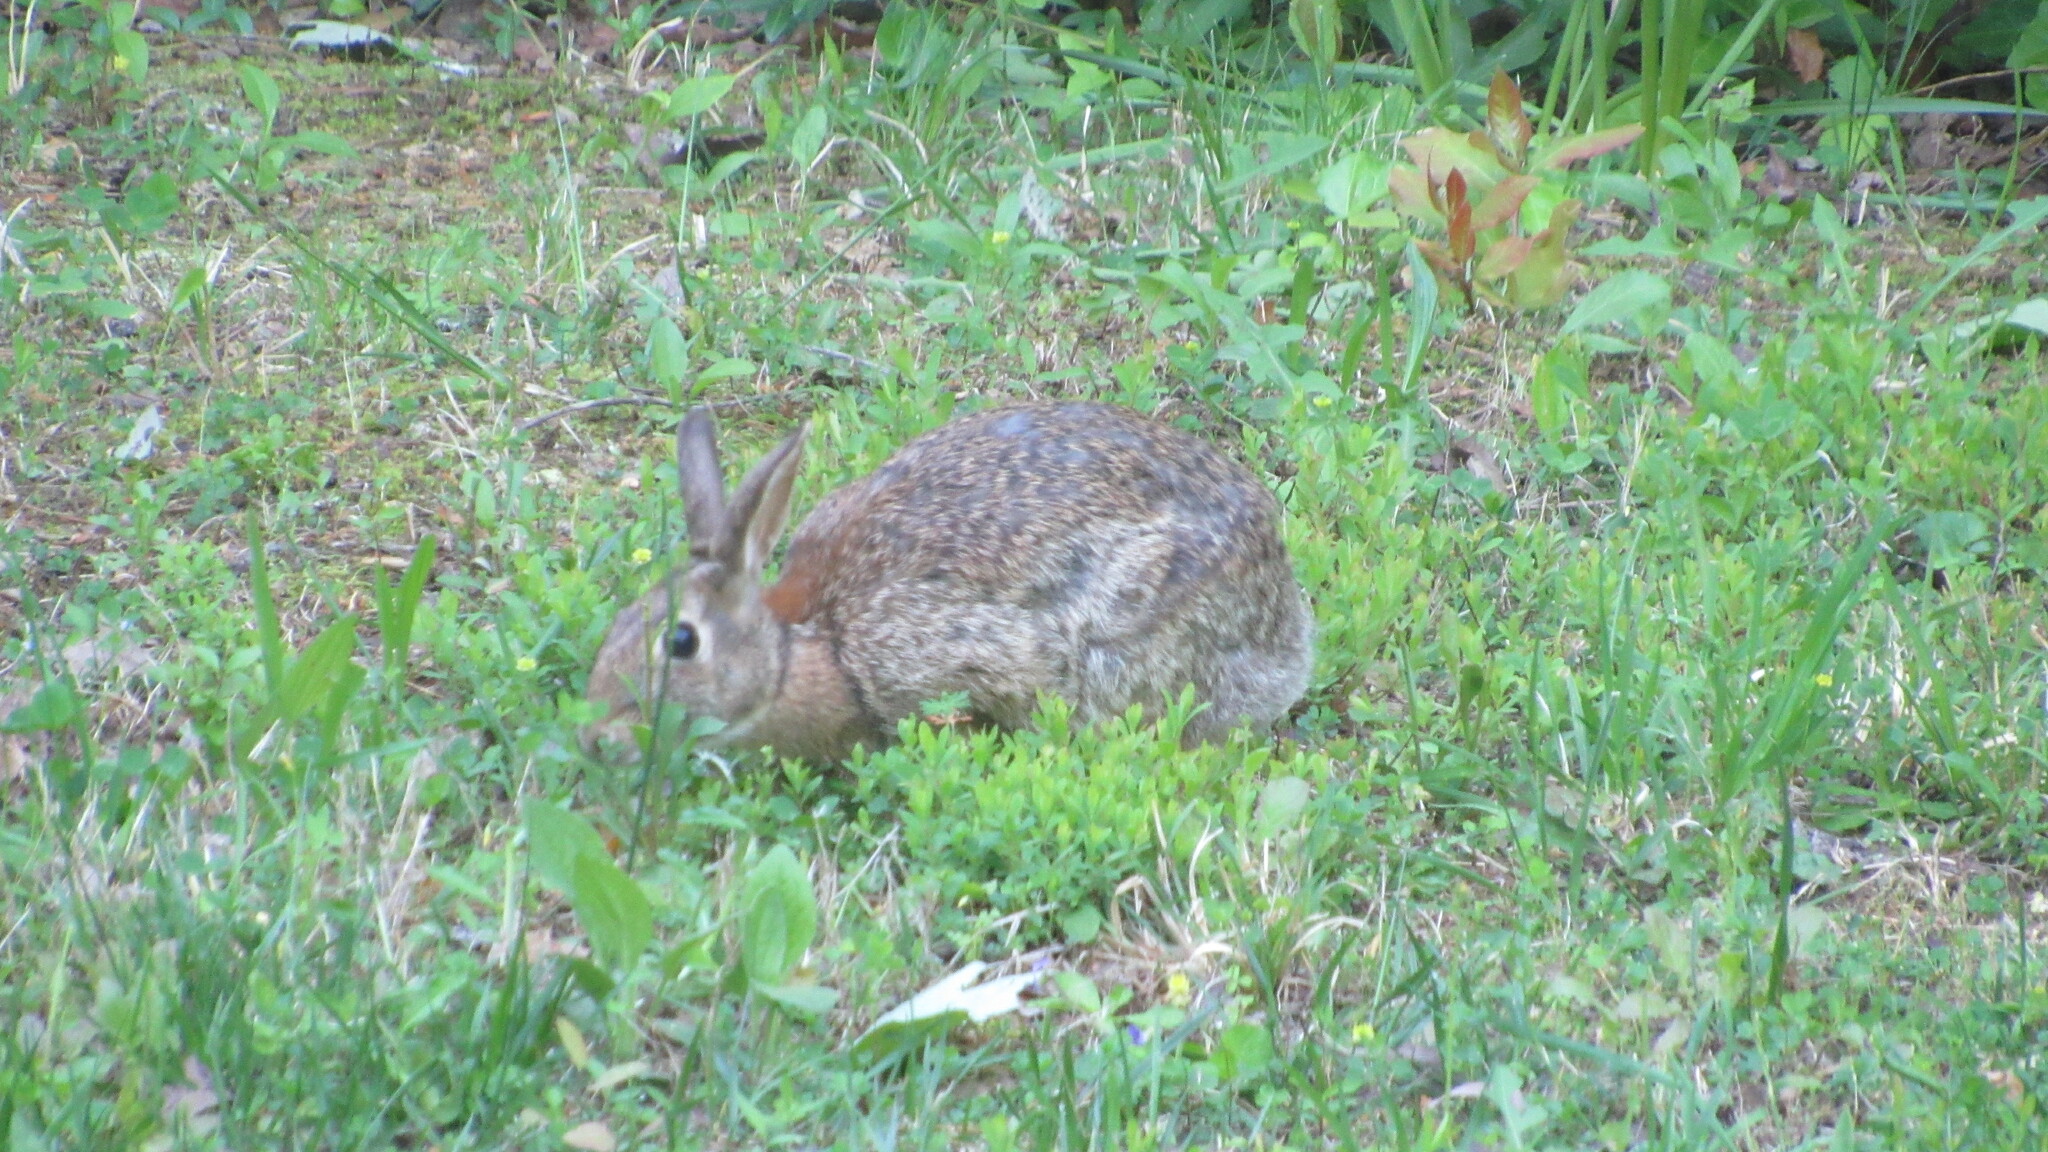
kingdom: Animalia
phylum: Chordata
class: Mammalia
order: Lagomorpha
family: Leporidae
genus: Sylvilagus
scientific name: Sylvilagus floridanus
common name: Eastern cottontail
